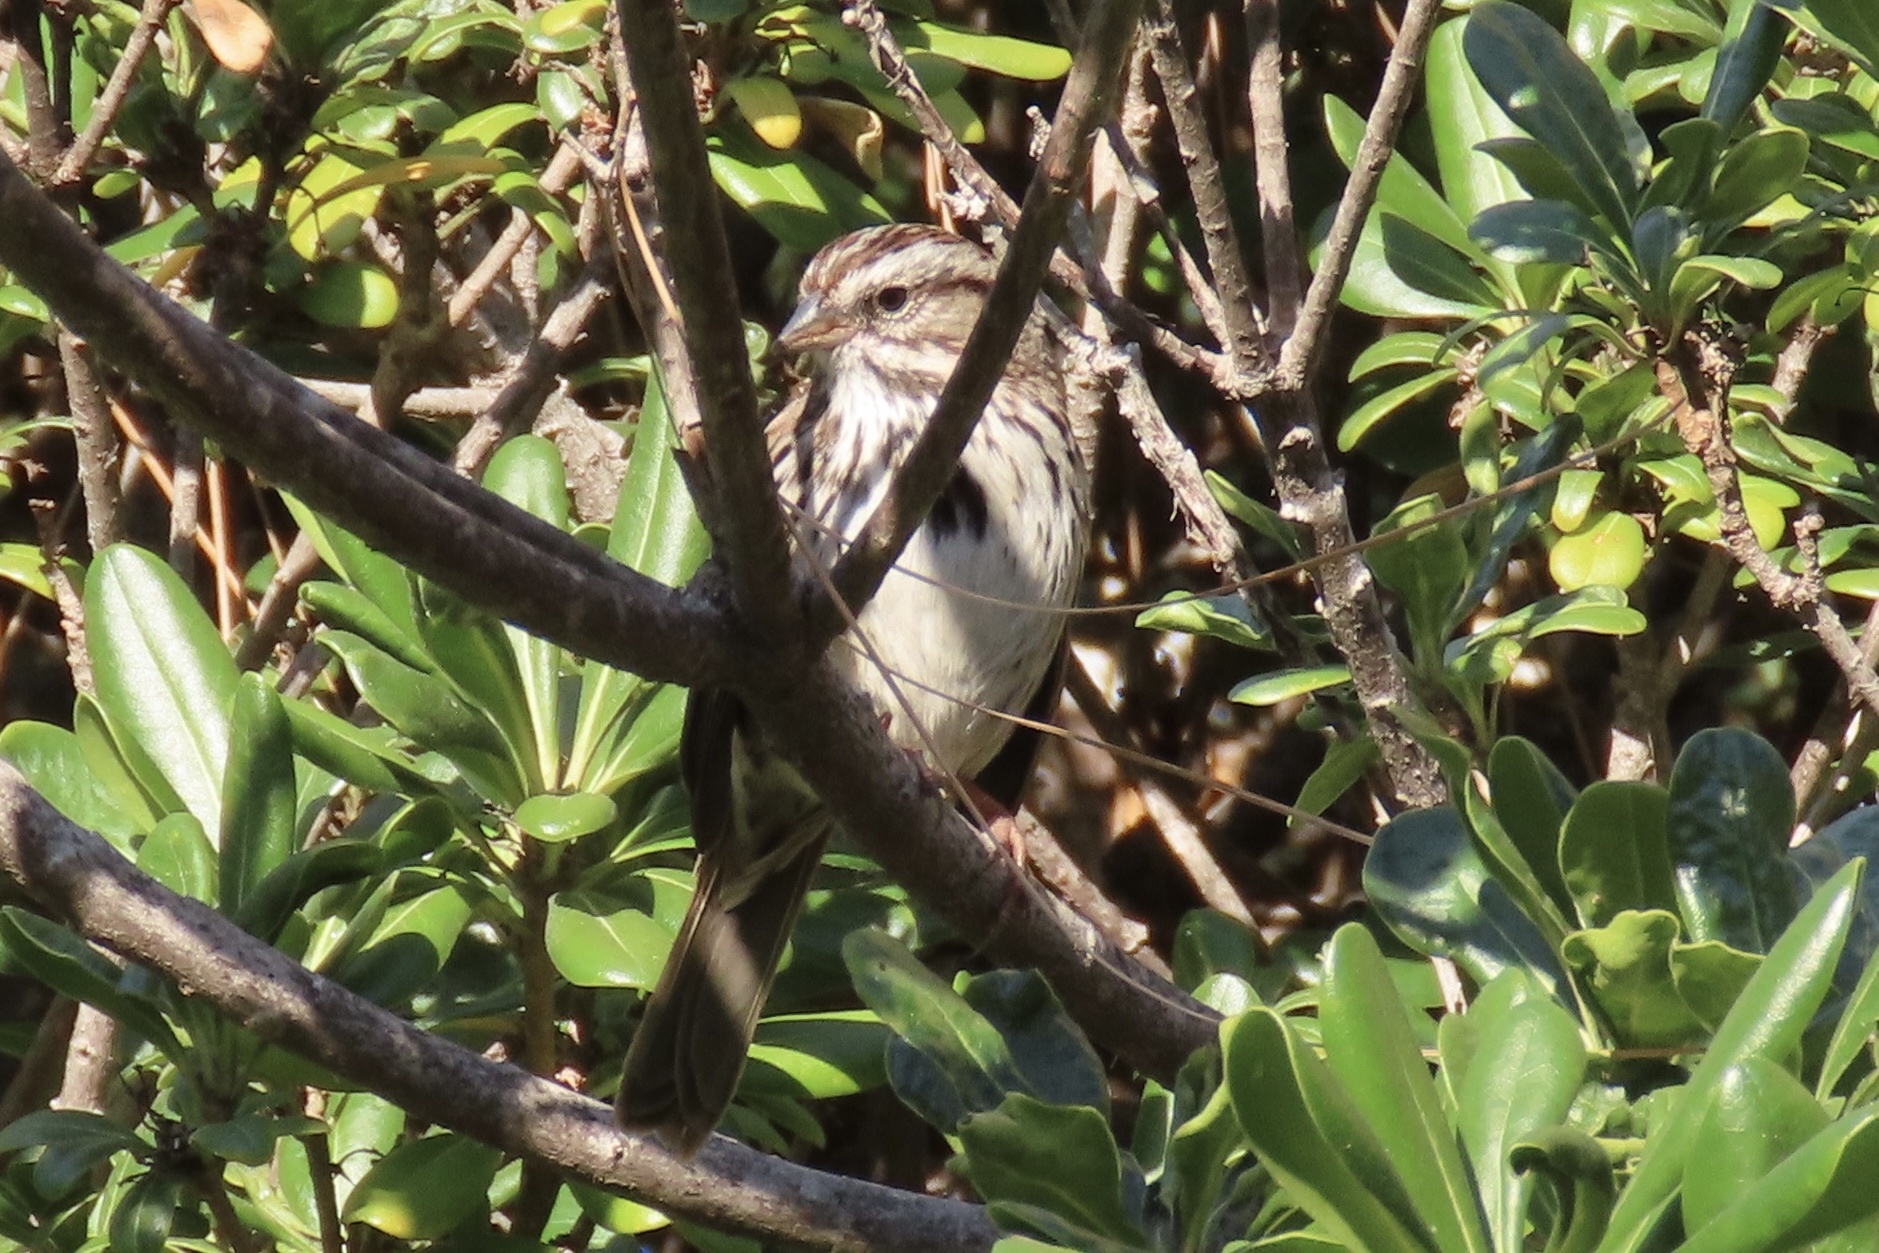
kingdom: Animalia
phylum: Chordata
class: Aves
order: Passeriformes
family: Passerellidae
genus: Melospiza
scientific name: Melospiza melodia
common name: Song sparrow
